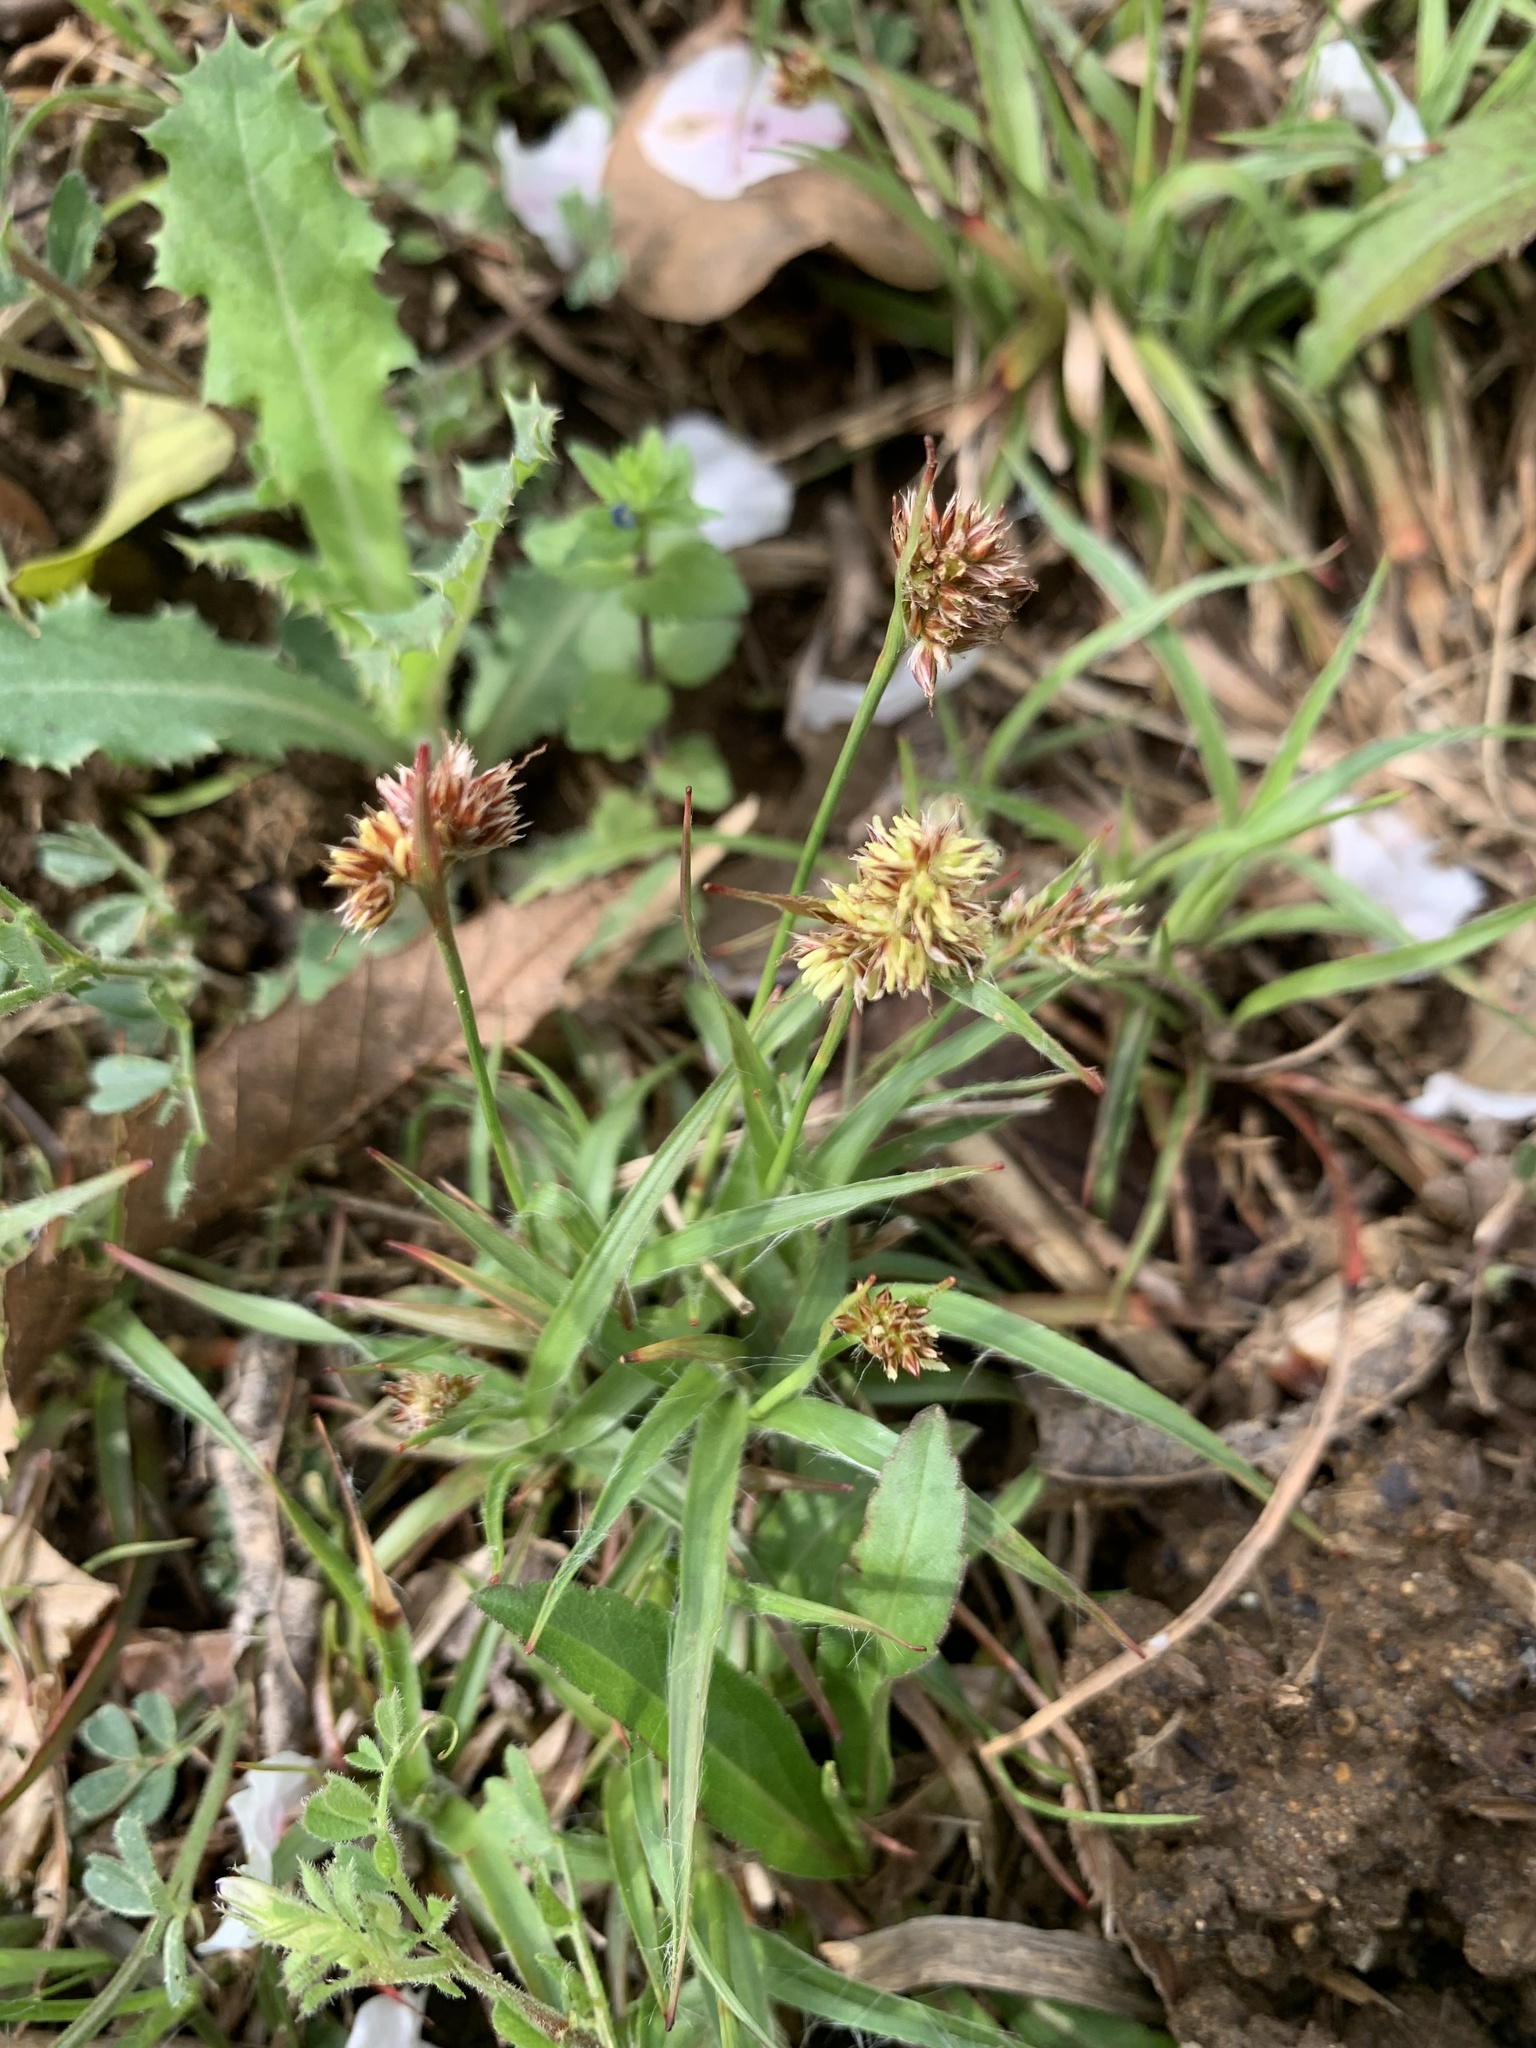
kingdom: Plantae
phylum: Tracheophyta
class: Liliopsida
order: Poales
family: Juncaceae
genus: Luzula
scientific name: Luzula capitata
